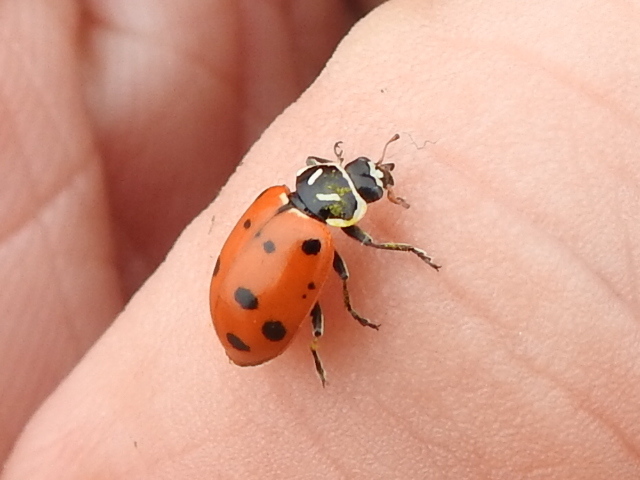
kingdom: Animalia
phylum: Arthropoda
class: Insecta
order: Coleoptera
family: Coccinellidae
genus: Hippodamia
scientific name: Hippodamia convergens
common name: Convergent lady beetle
